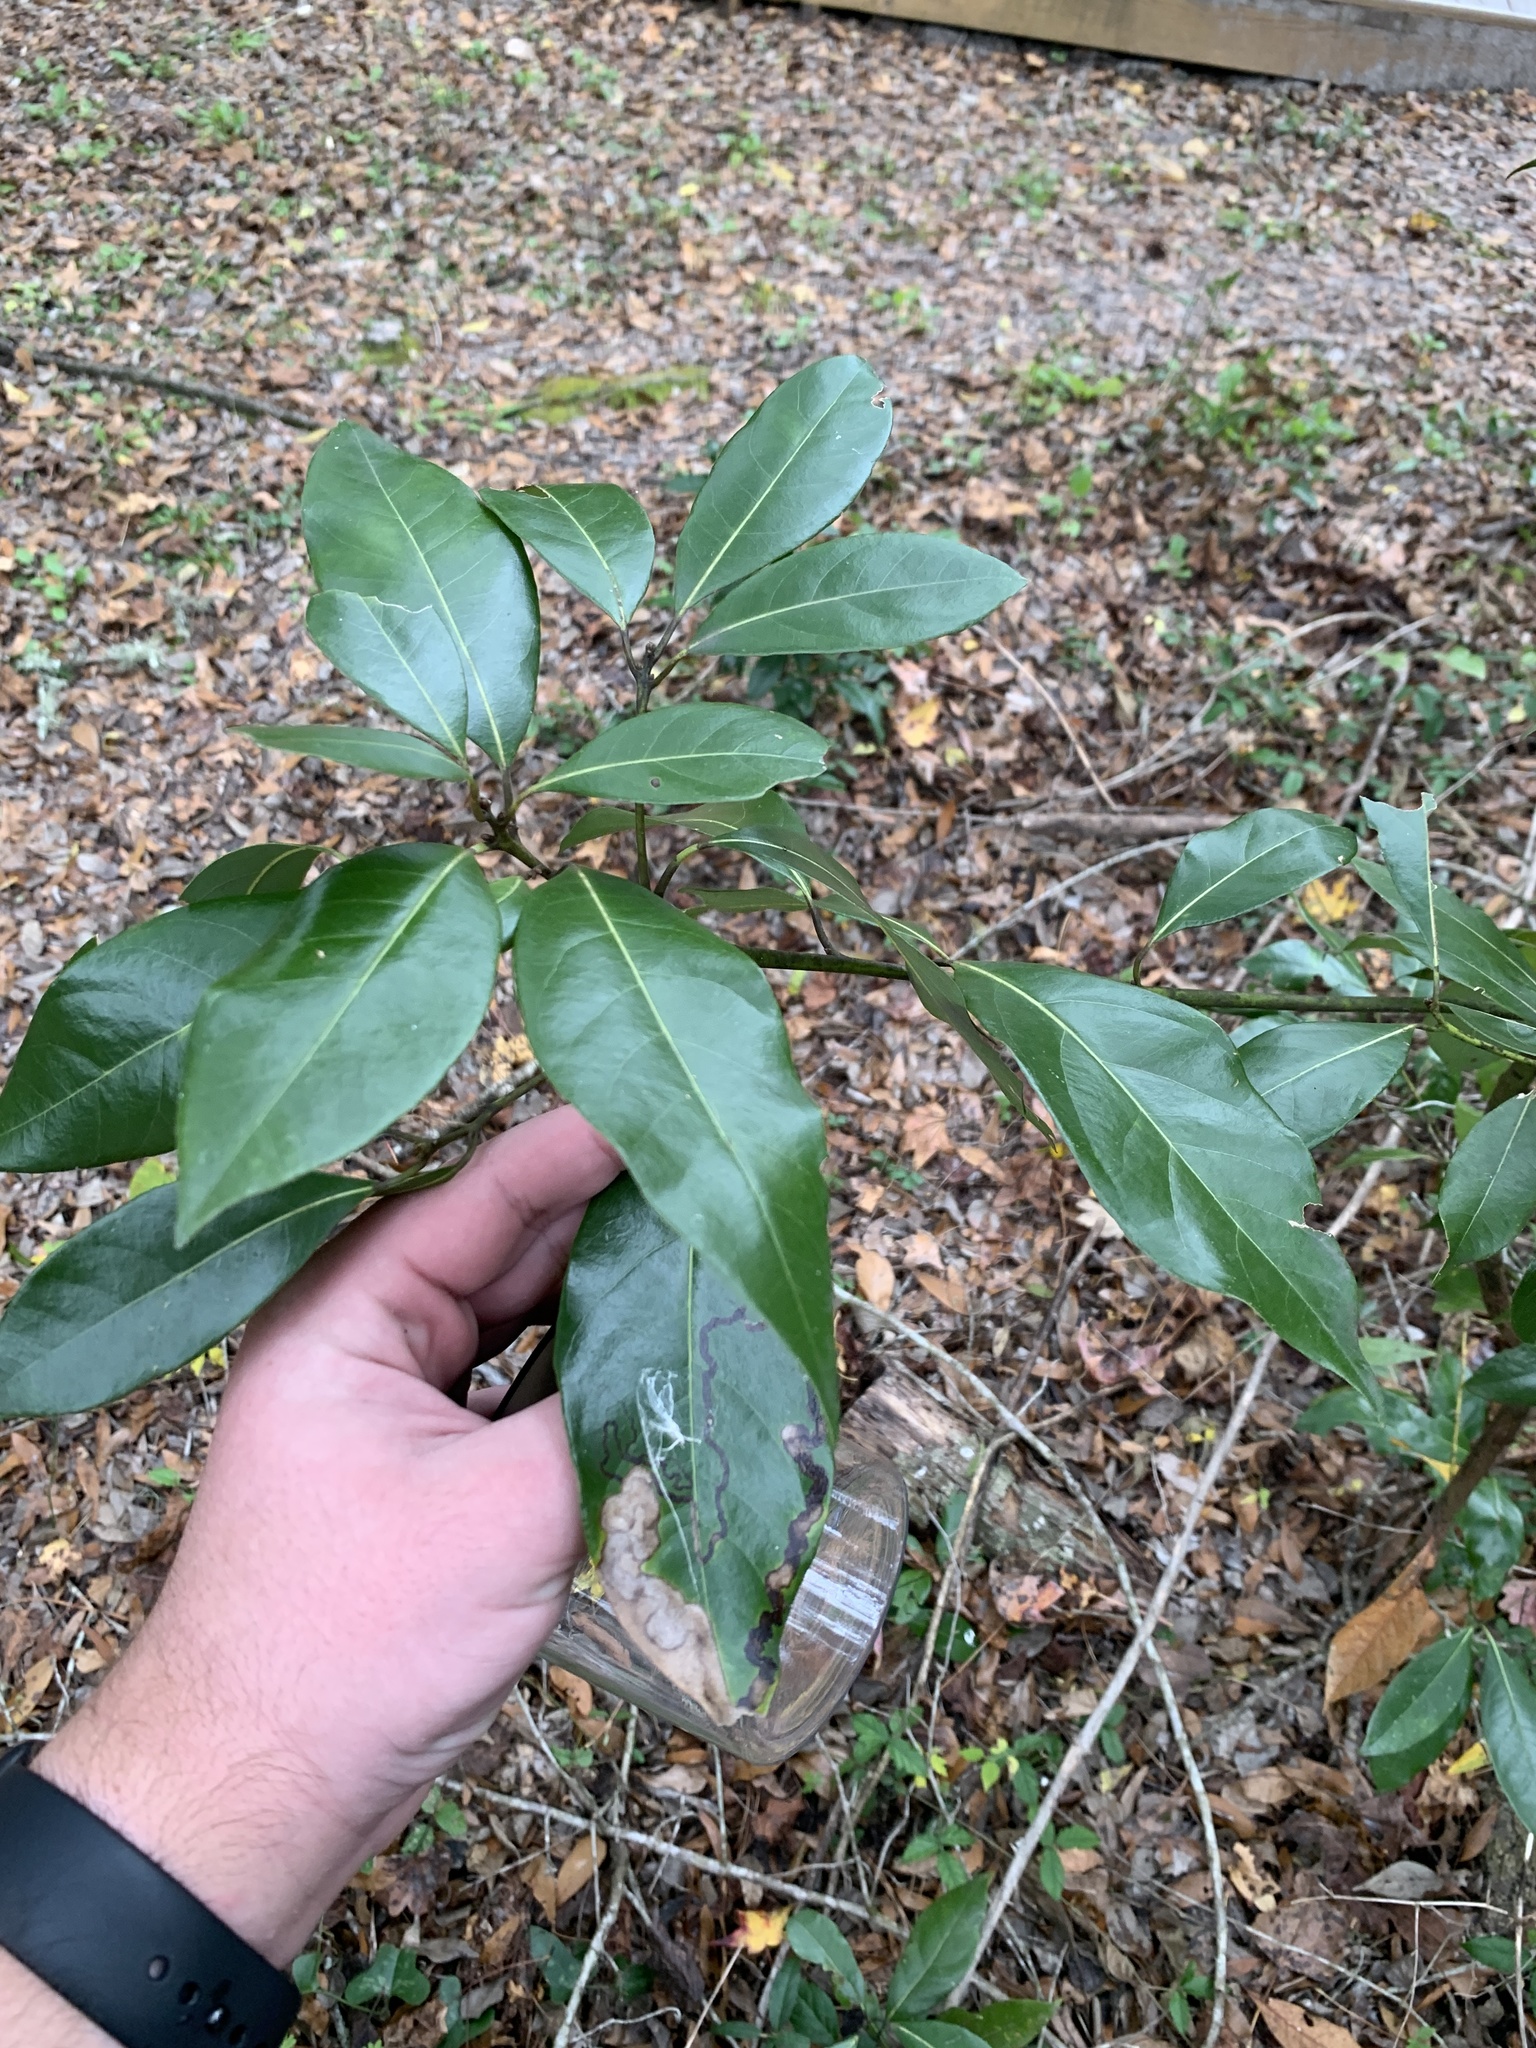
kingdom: Plantae
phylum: Tracheophyta
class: Magnoliopsida
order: Laurales
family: Lauraceae
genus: Persea
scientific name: Persea borbonia
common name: Redbay
